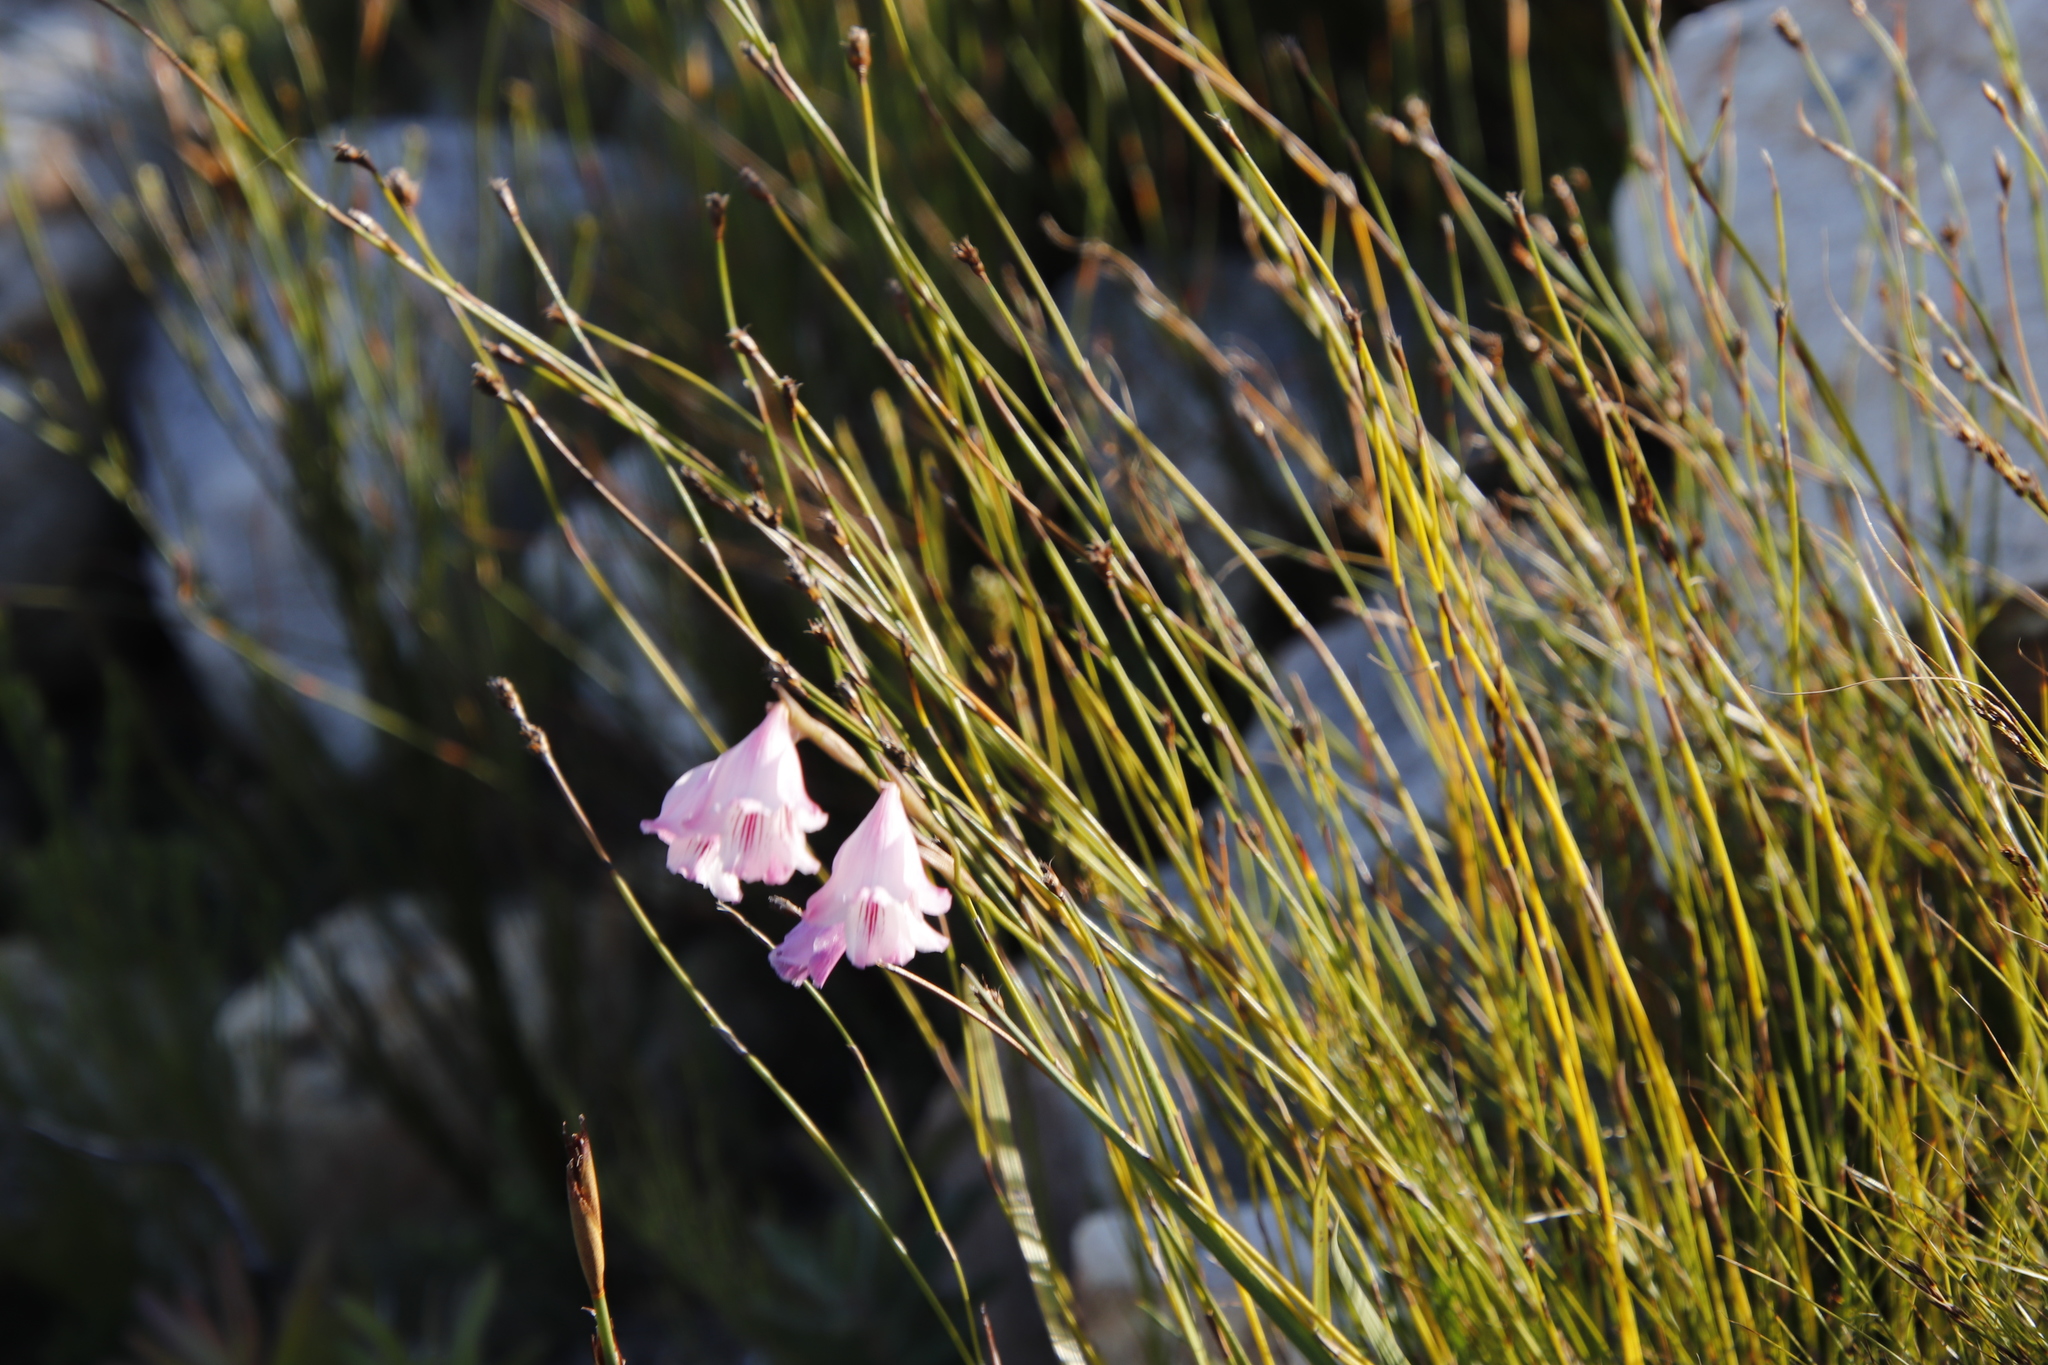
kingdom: Plantae
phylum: Tracheophyta
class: Liliopsida
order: Asparagales
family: Iridaceae
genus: Gladiolus
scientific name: Gladiolus hirsutus
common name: Small pink afrikaner
